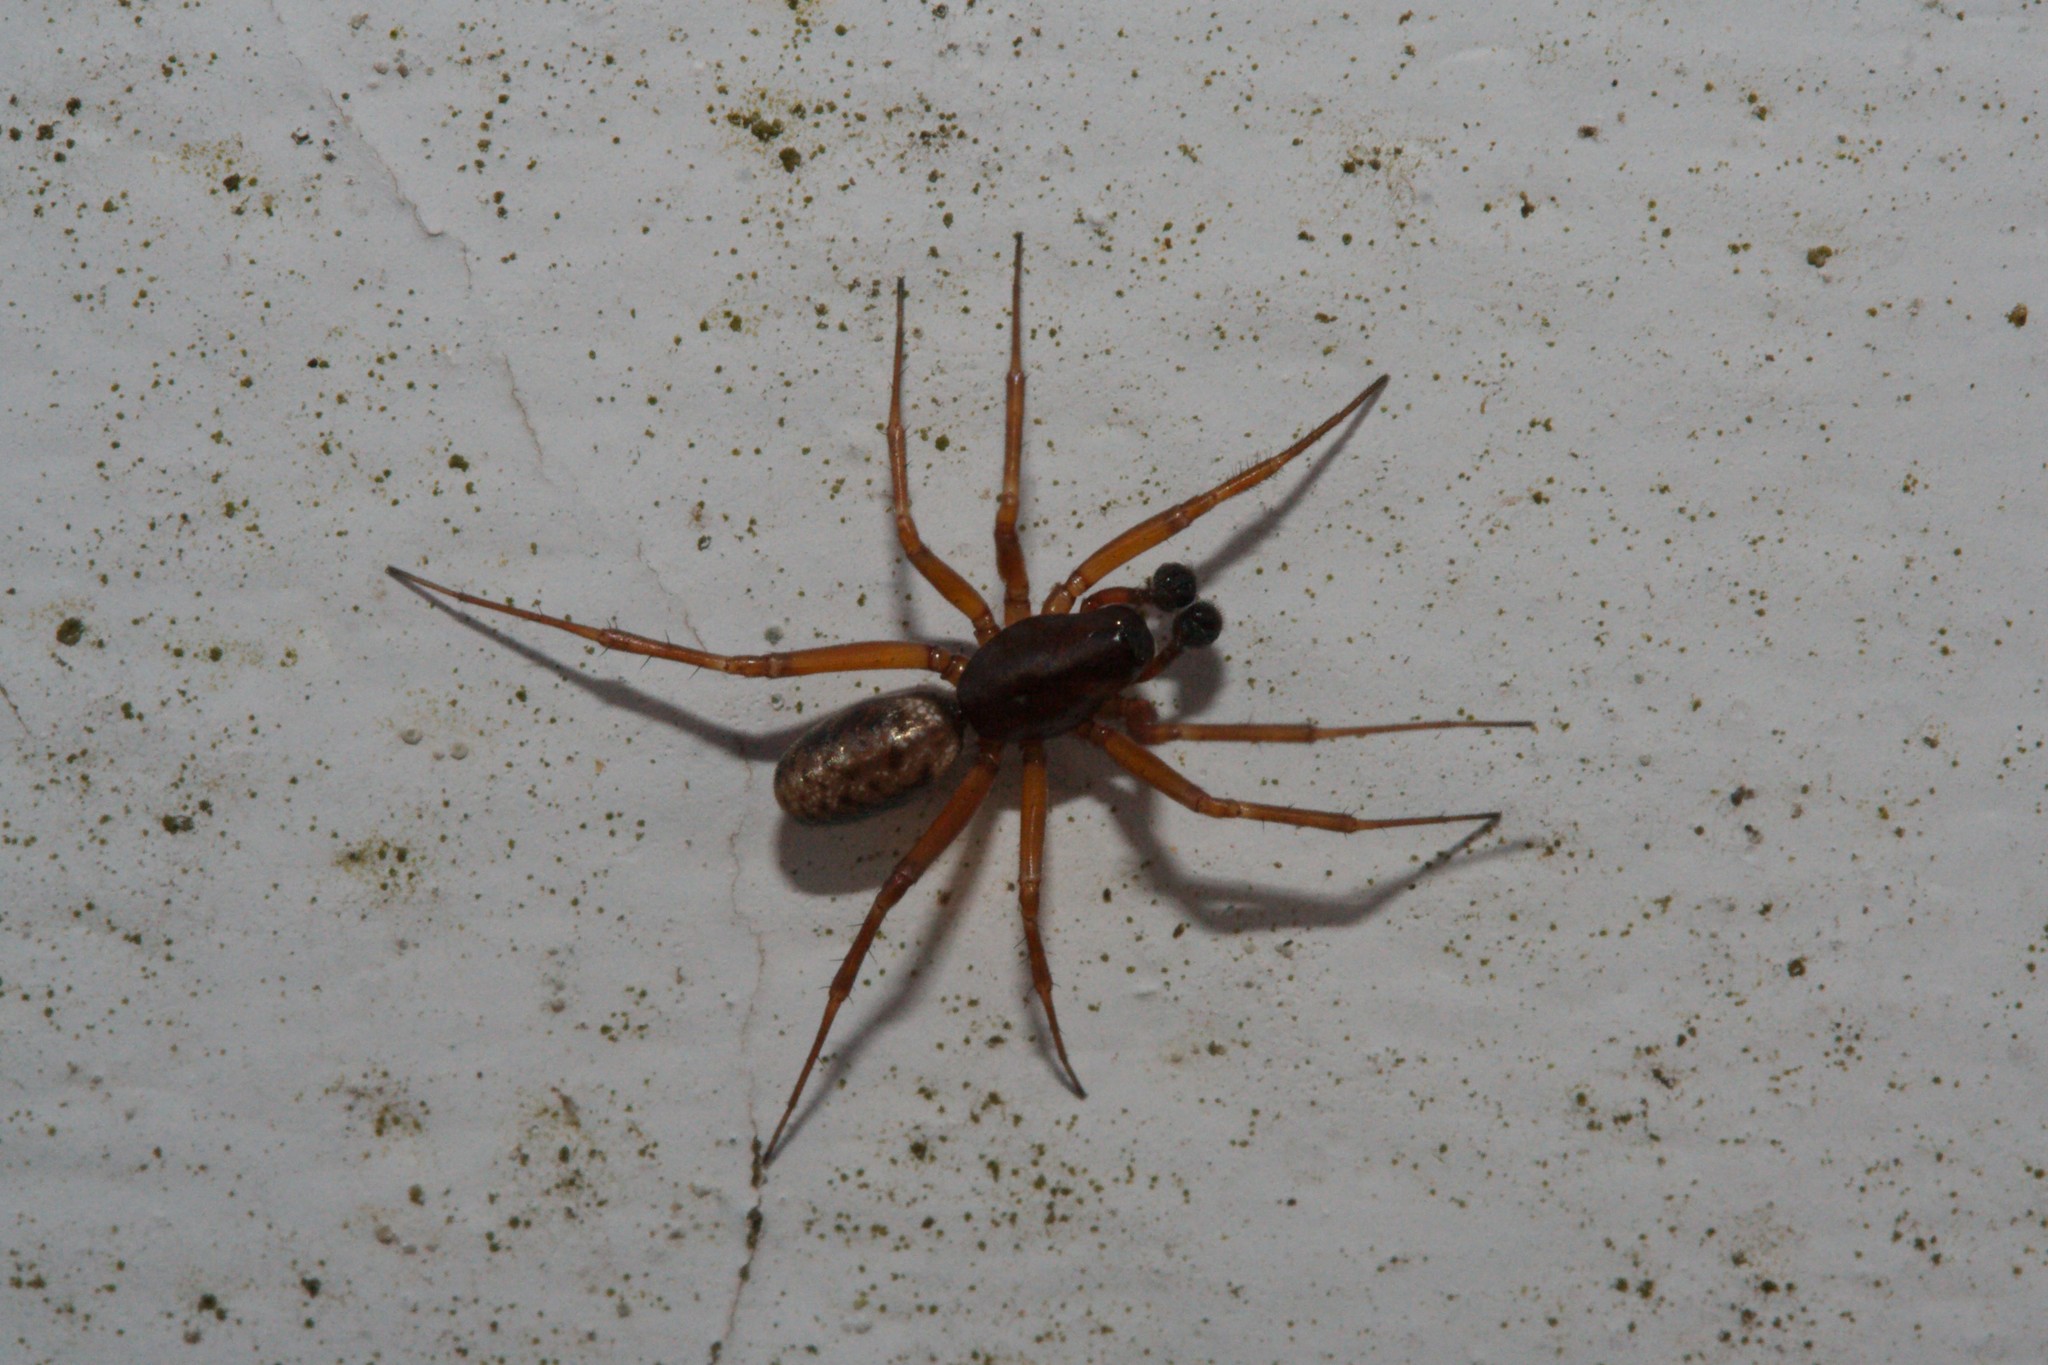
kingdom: Animalia
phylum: Arthropoda
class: Arachnida
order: Araneae
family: Linyphiidae
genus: Neriene
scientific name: Neriene clathrata
